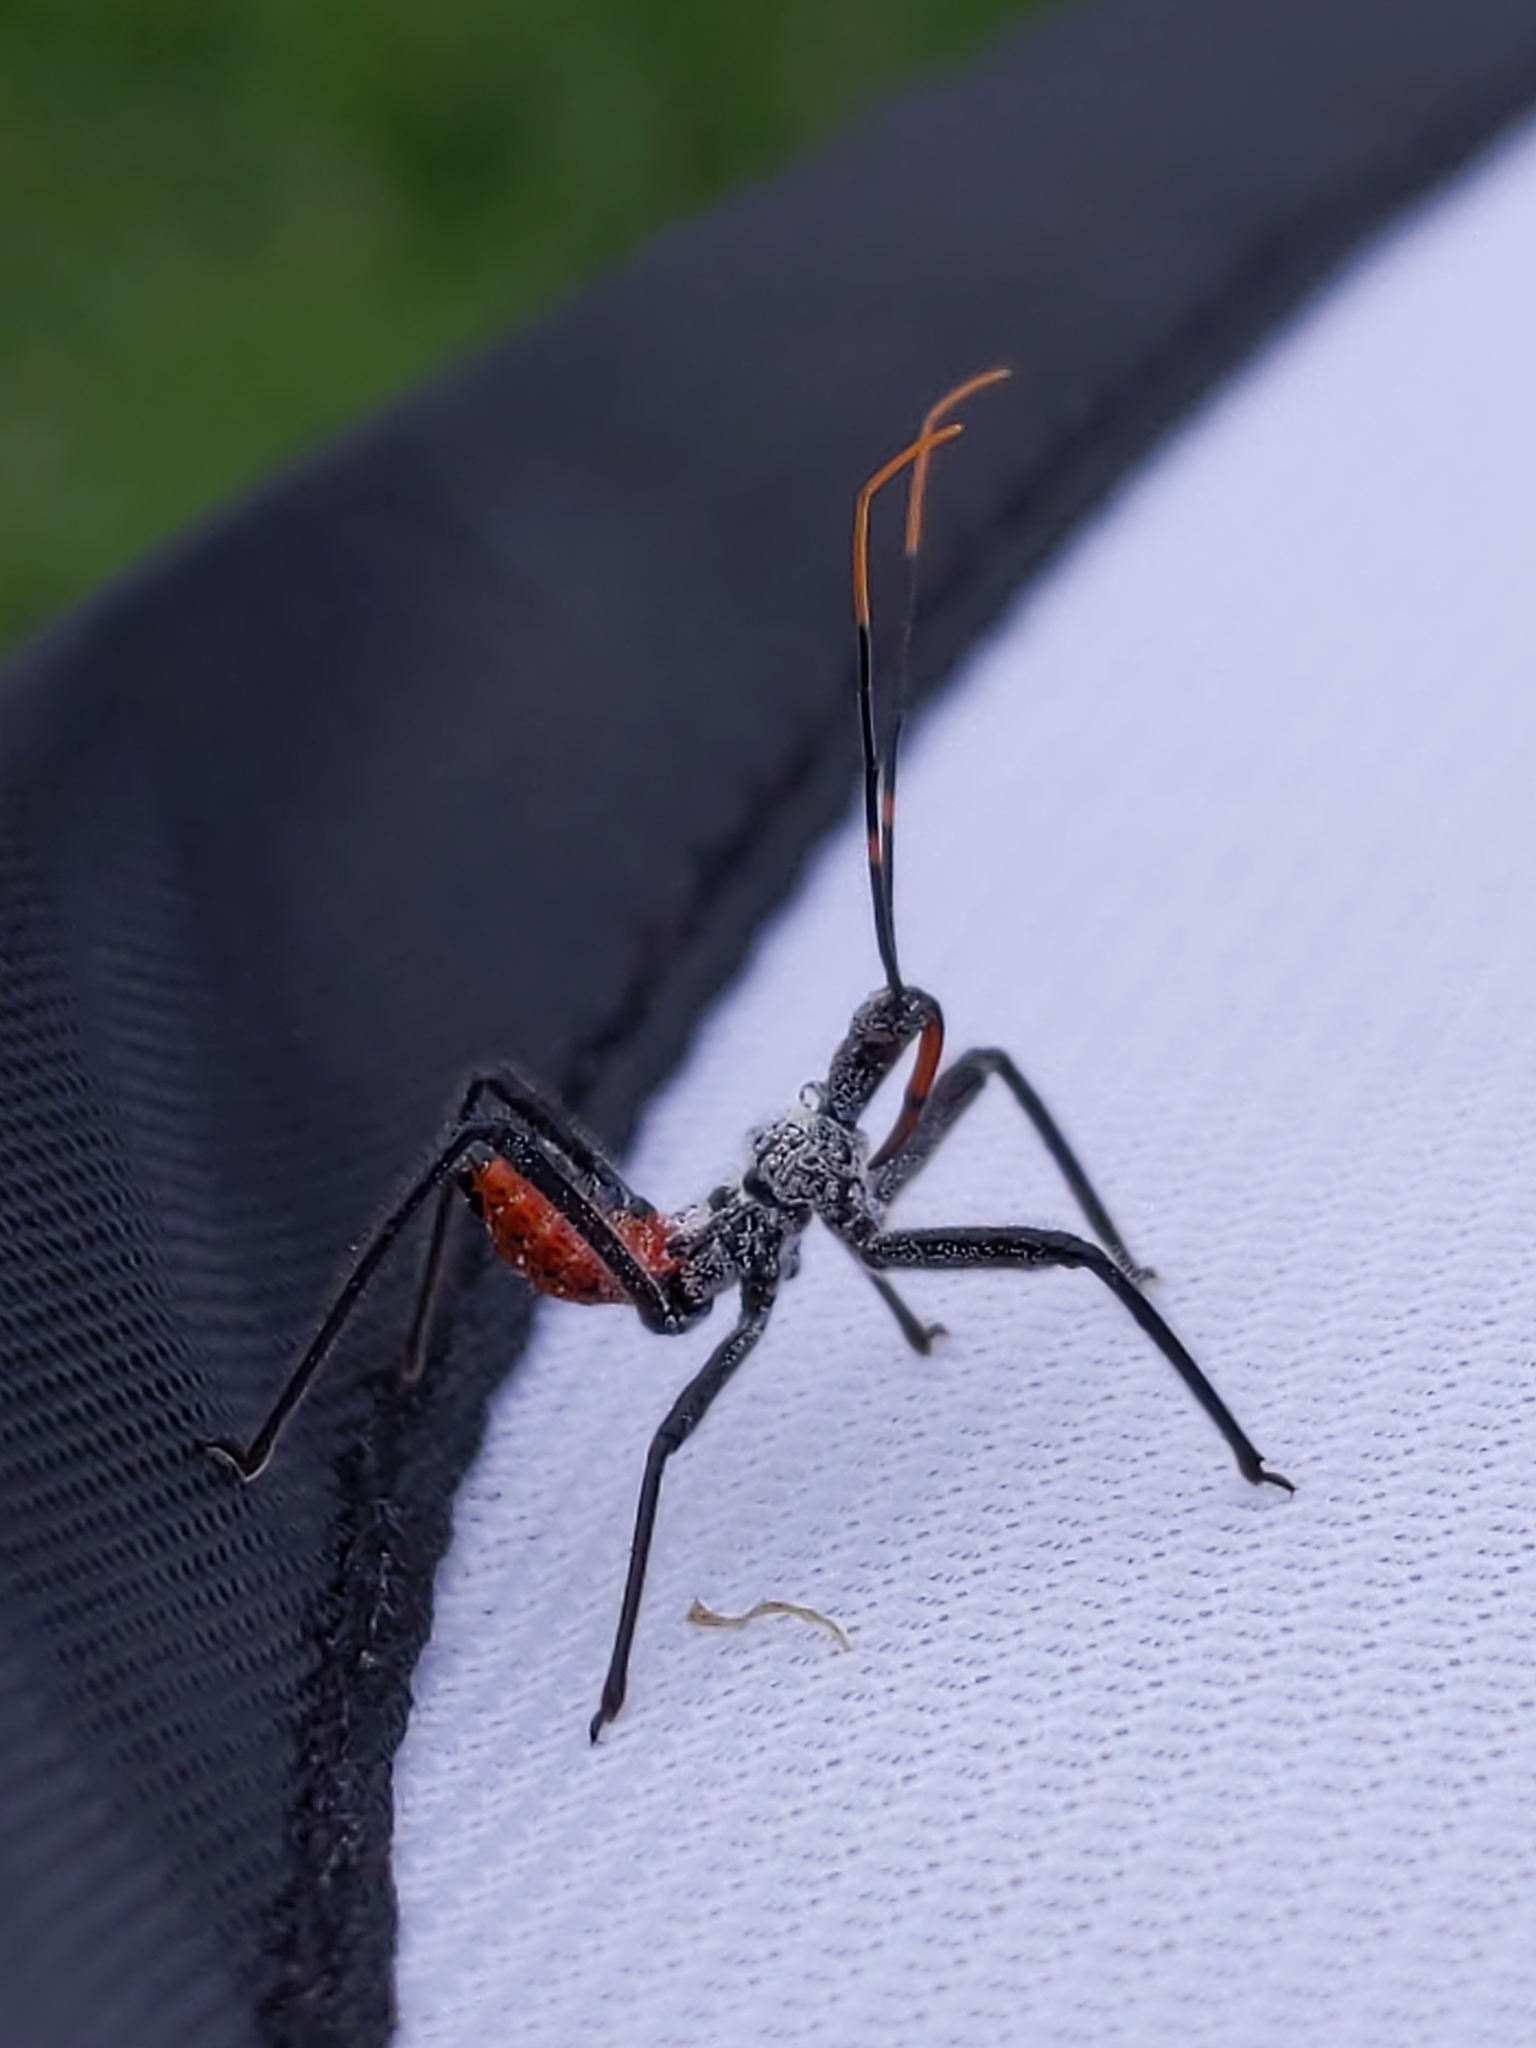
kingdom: Animalia
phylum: Arthropoda
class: Insecta
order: Hemiptera
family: Reduviidae
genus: Arilus
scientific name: Arilus cristatus
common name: North american wheel bug
